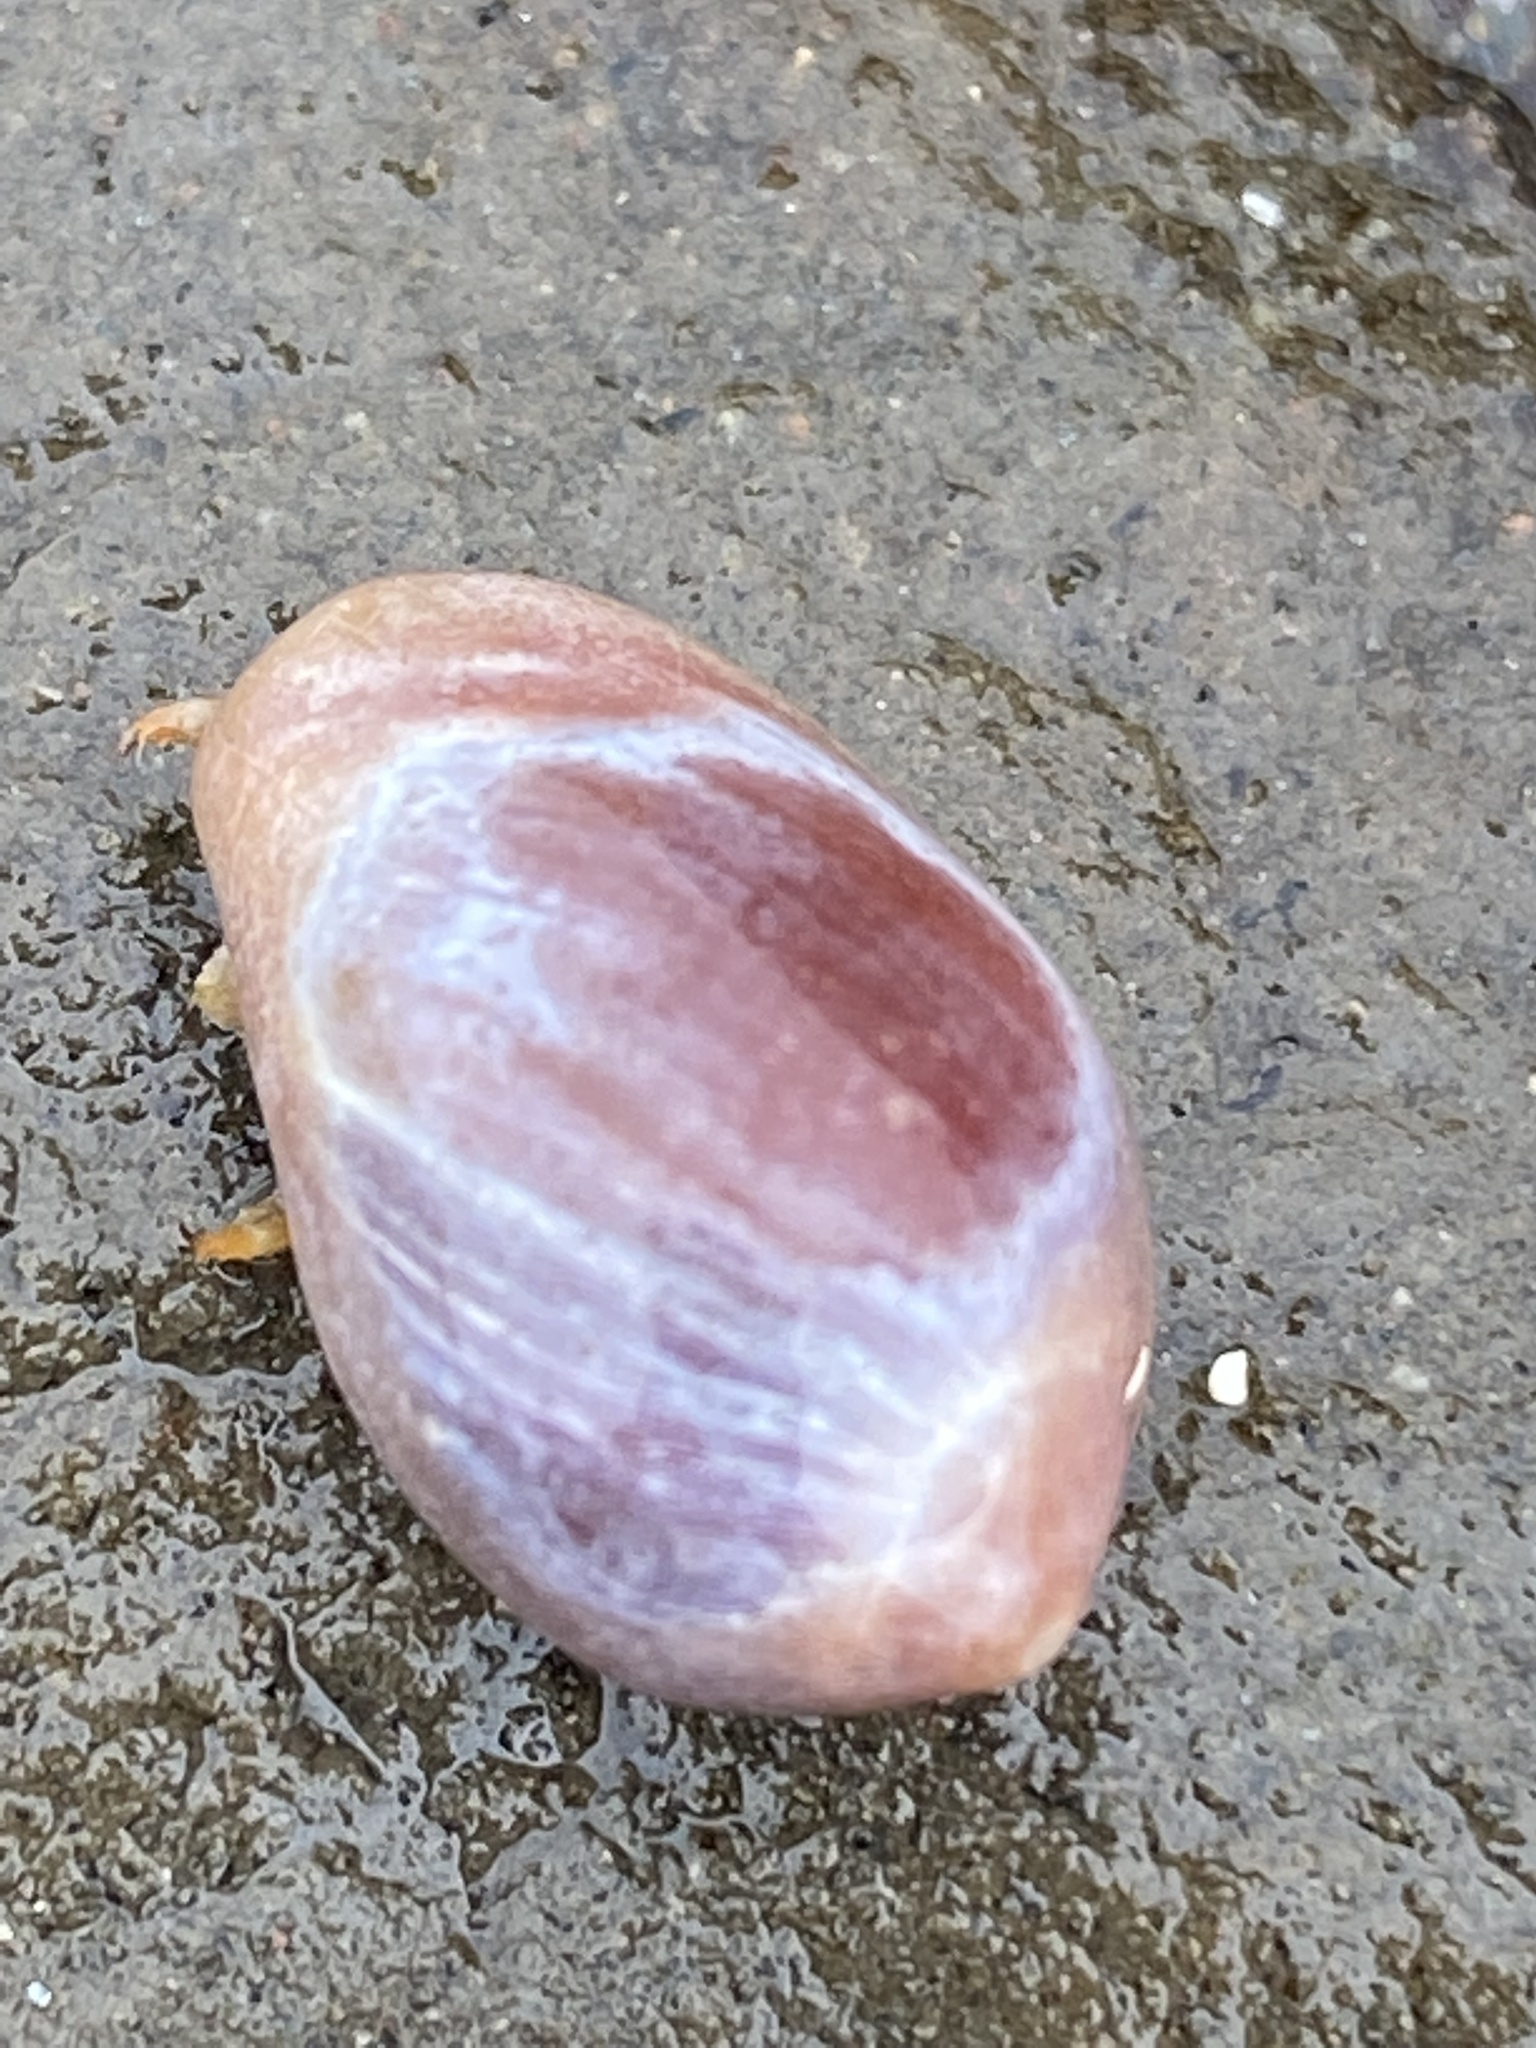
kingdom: Animalia
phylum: Mollusca
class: Gastropoda
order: Littorinimorpha
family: Eratoidae
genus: Hespererato
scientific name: Hespererato vitellina
